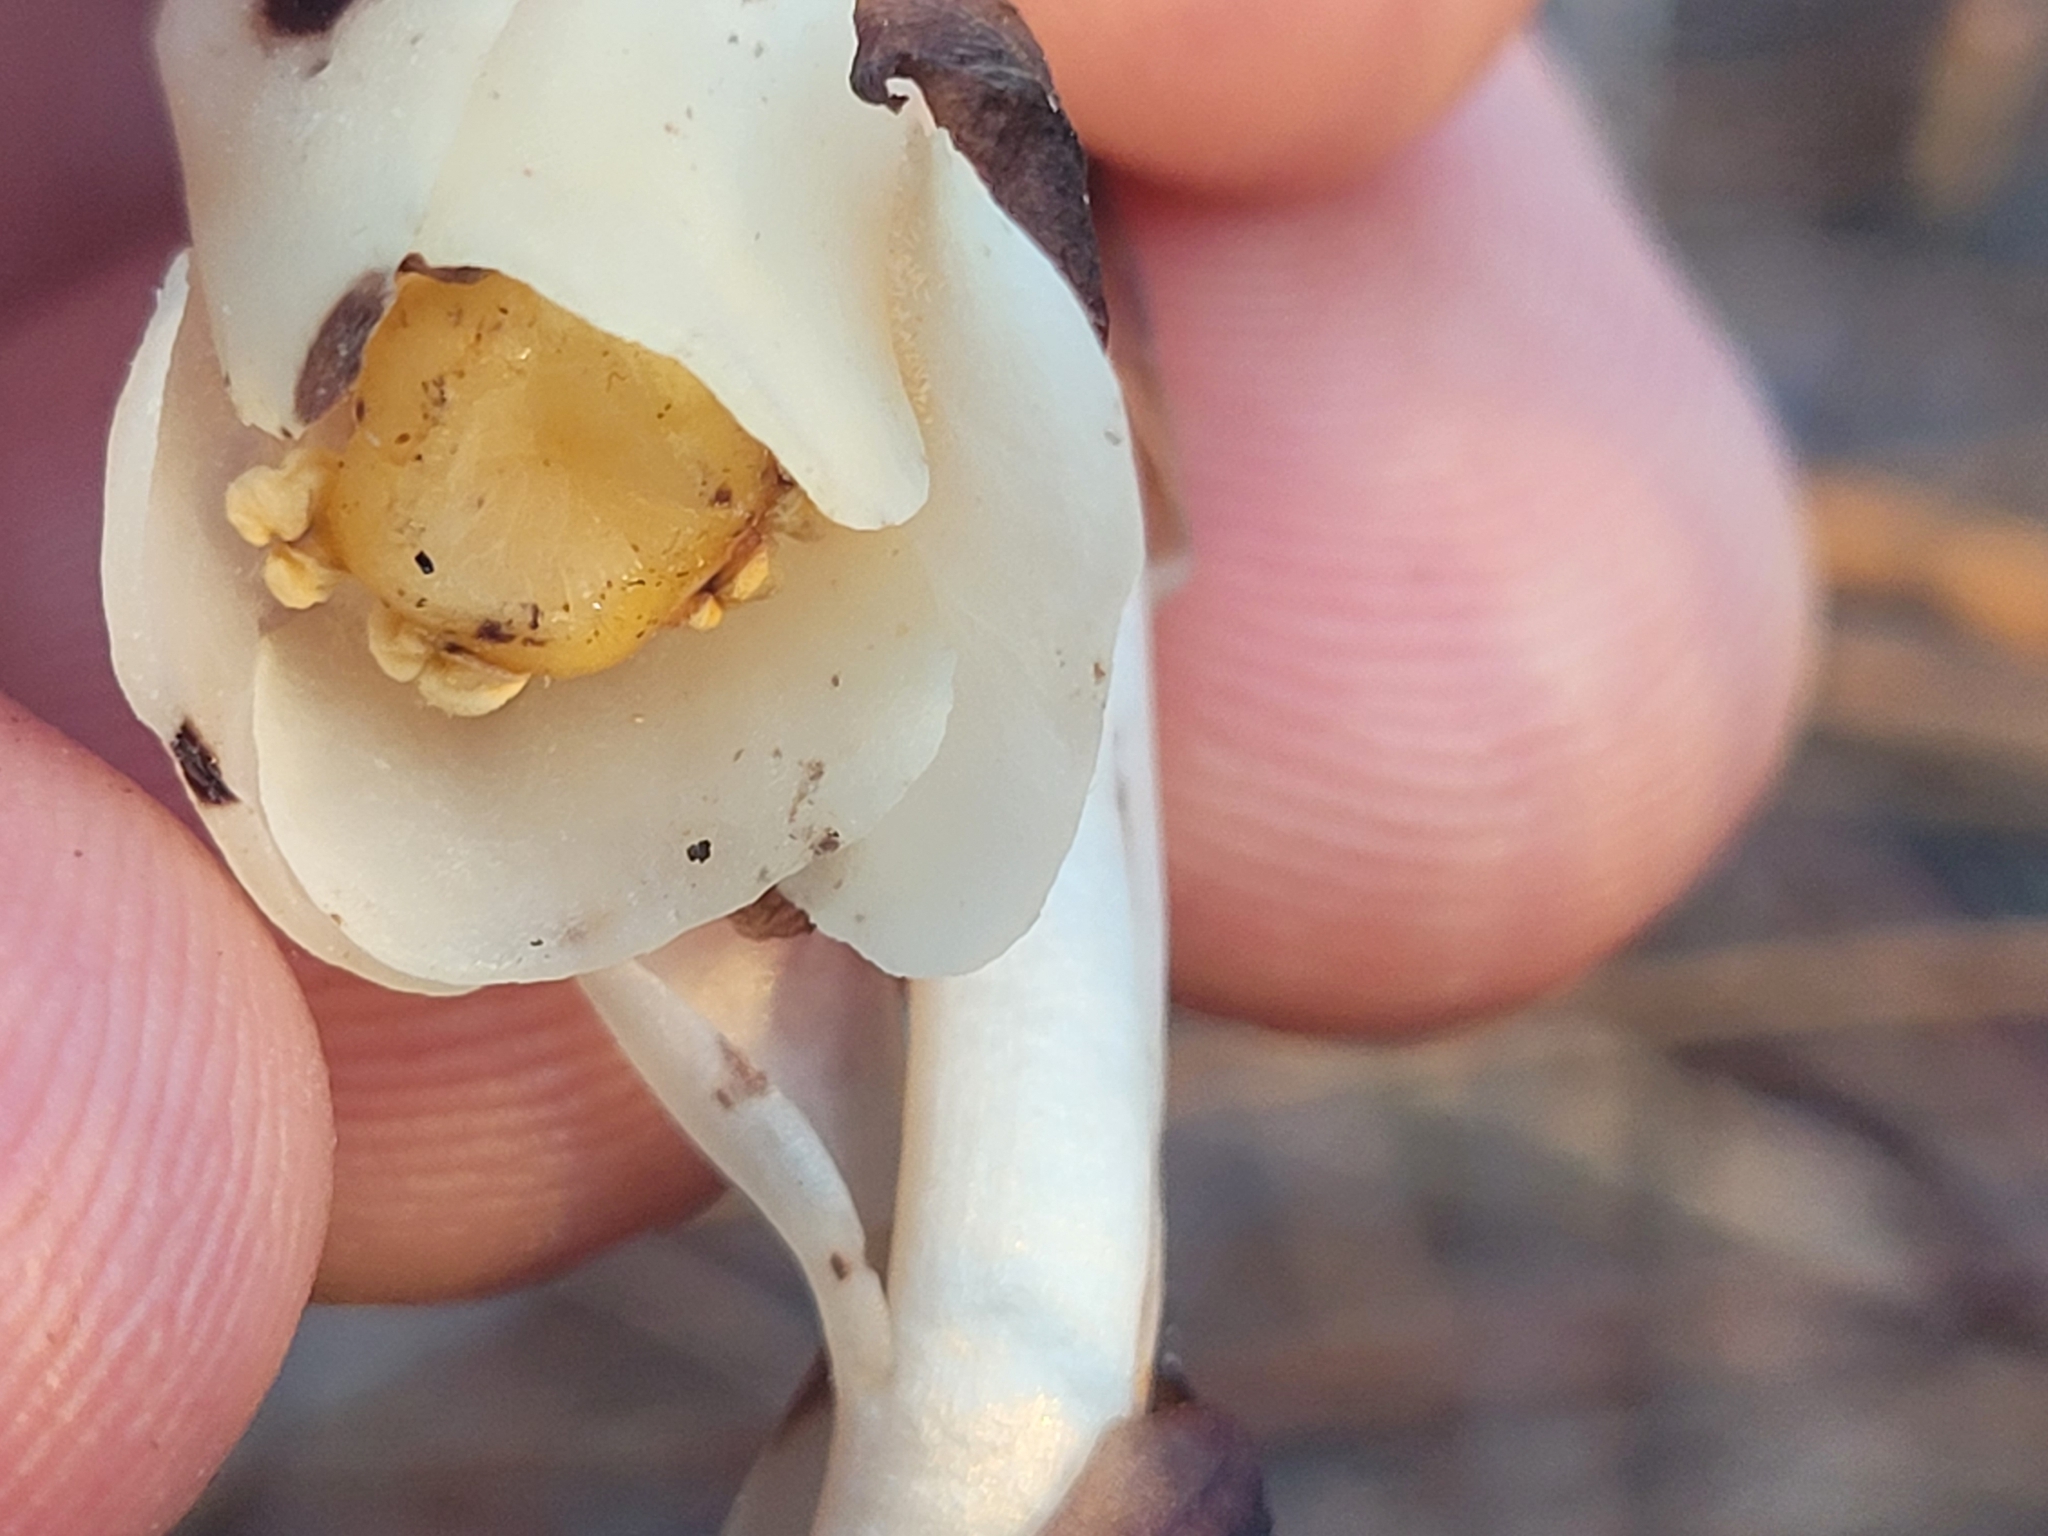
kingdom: Plantae
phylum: Tracheophyta
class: Magnoliopsida
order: Ericales
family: Ericaceae
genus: Monotropa
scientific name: Monotropa uniflora
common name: Convulsion root
